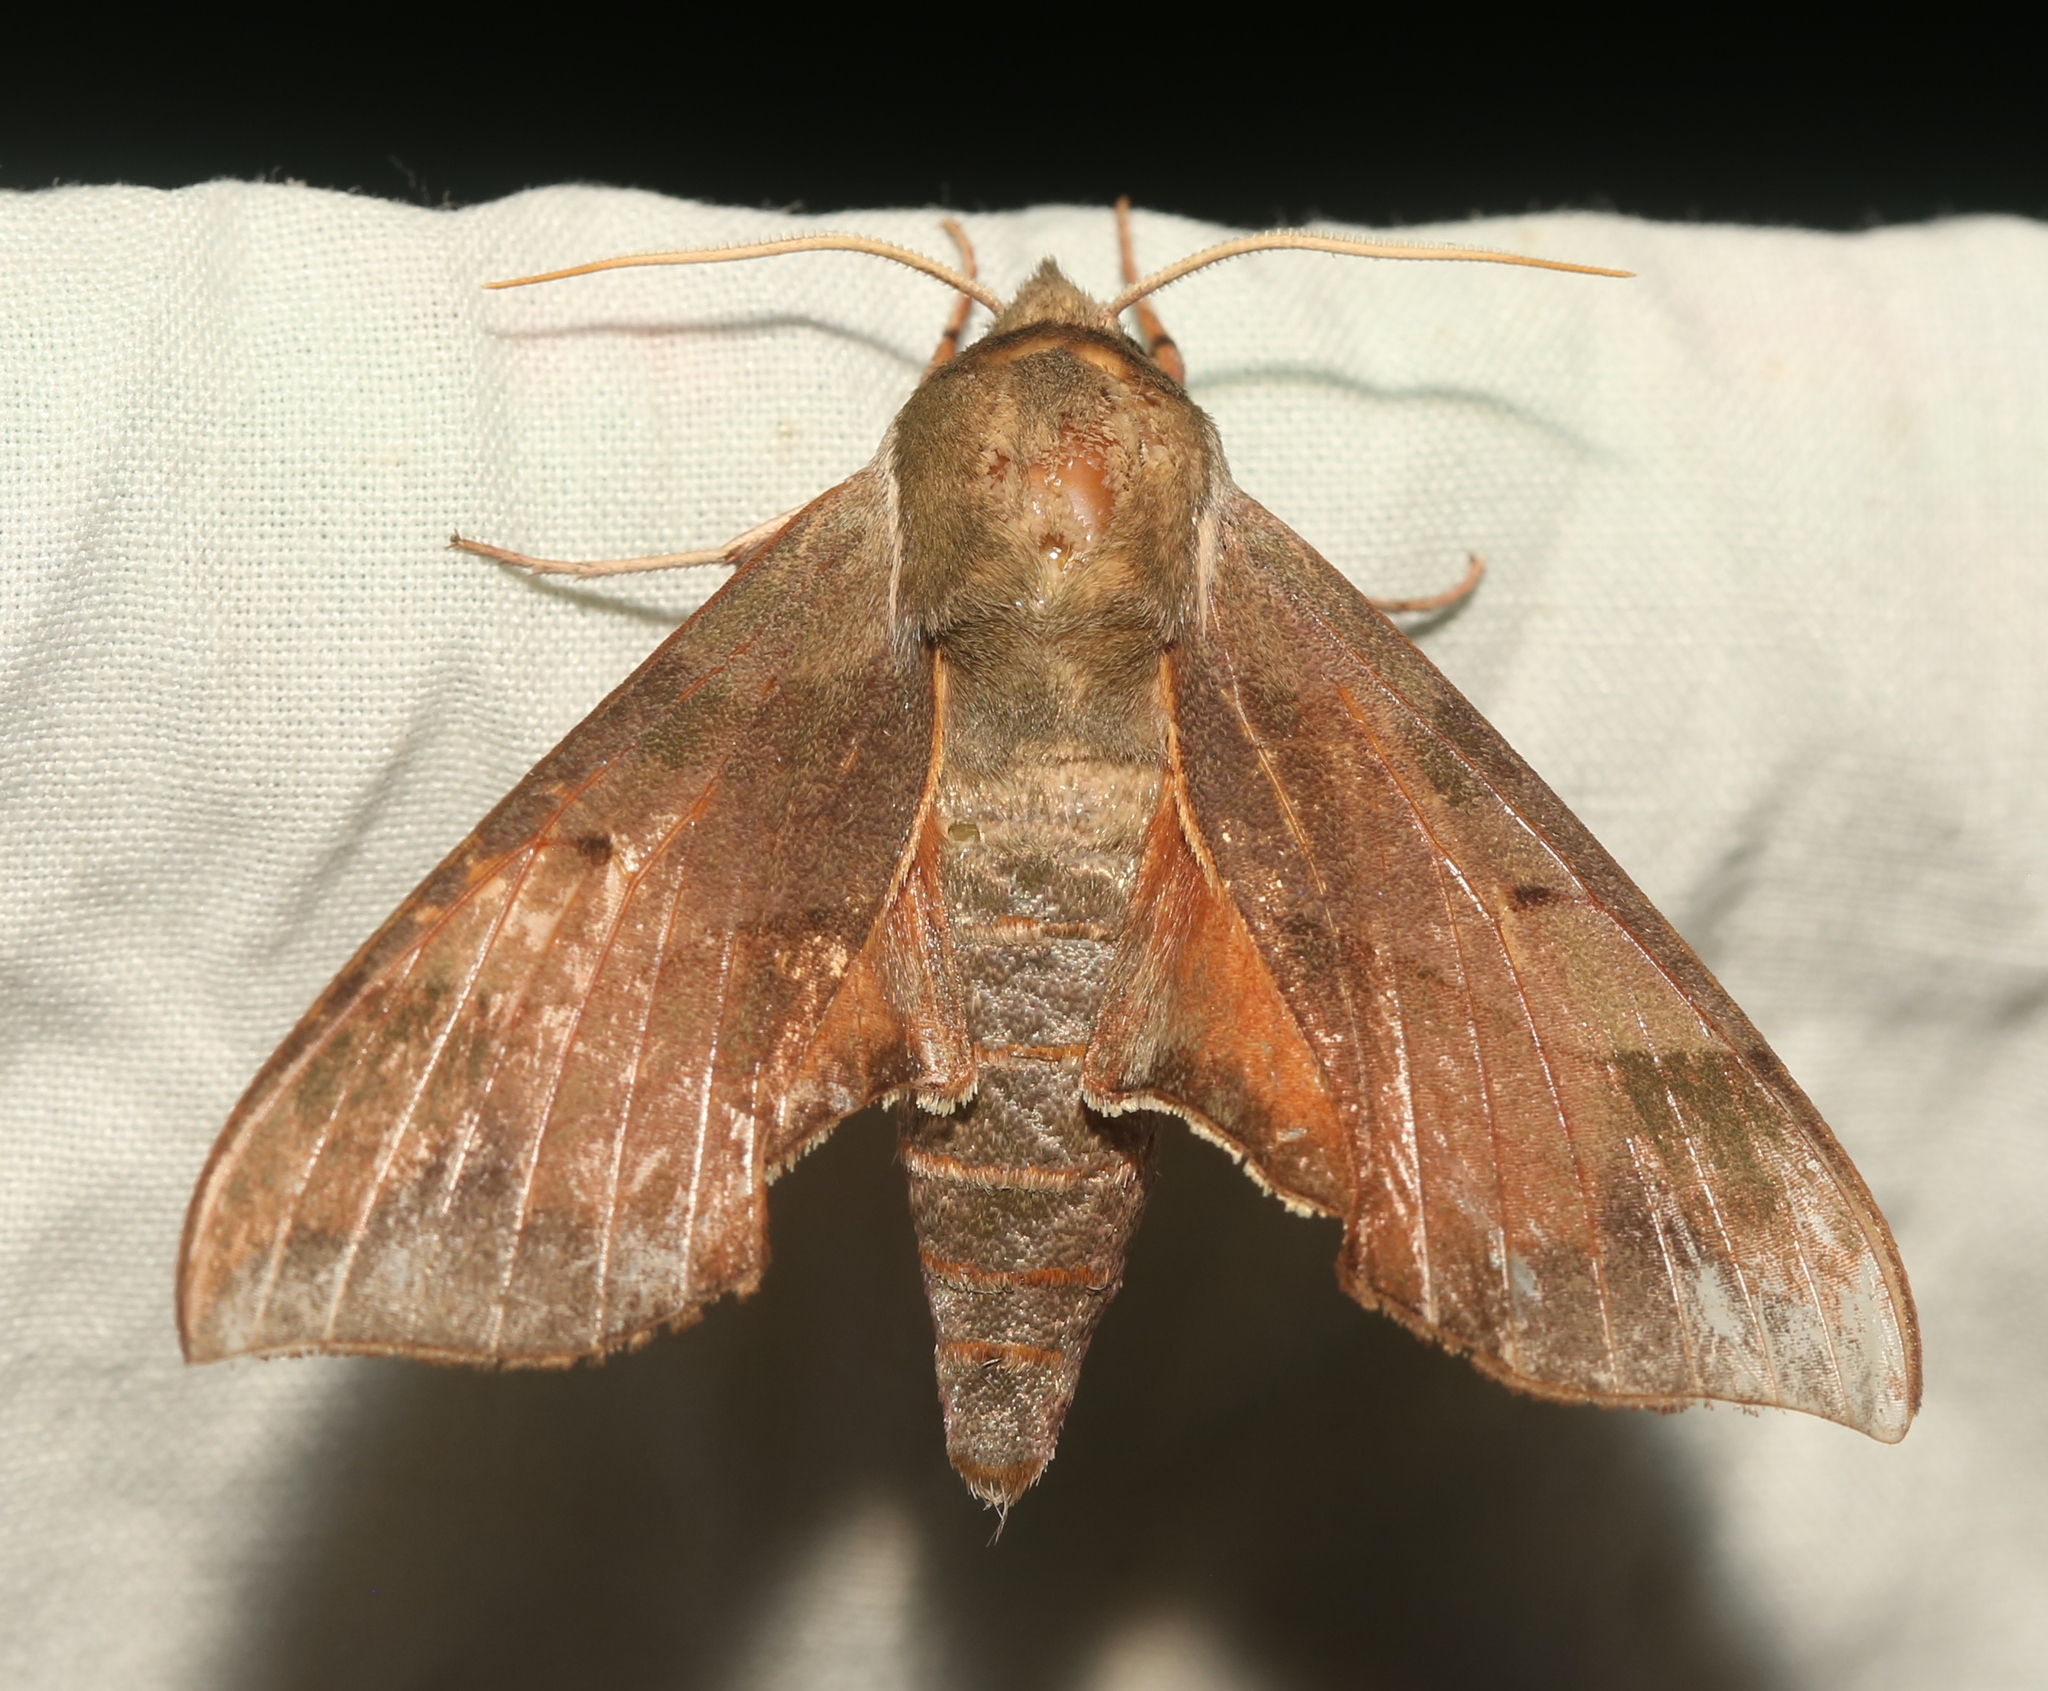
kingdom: Animalia
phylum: Arthropoda
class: Insecta
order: Lepidoptera
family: Sphingidae
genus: Darapsa
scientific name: Darapsa myron
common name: Hog sphinx
